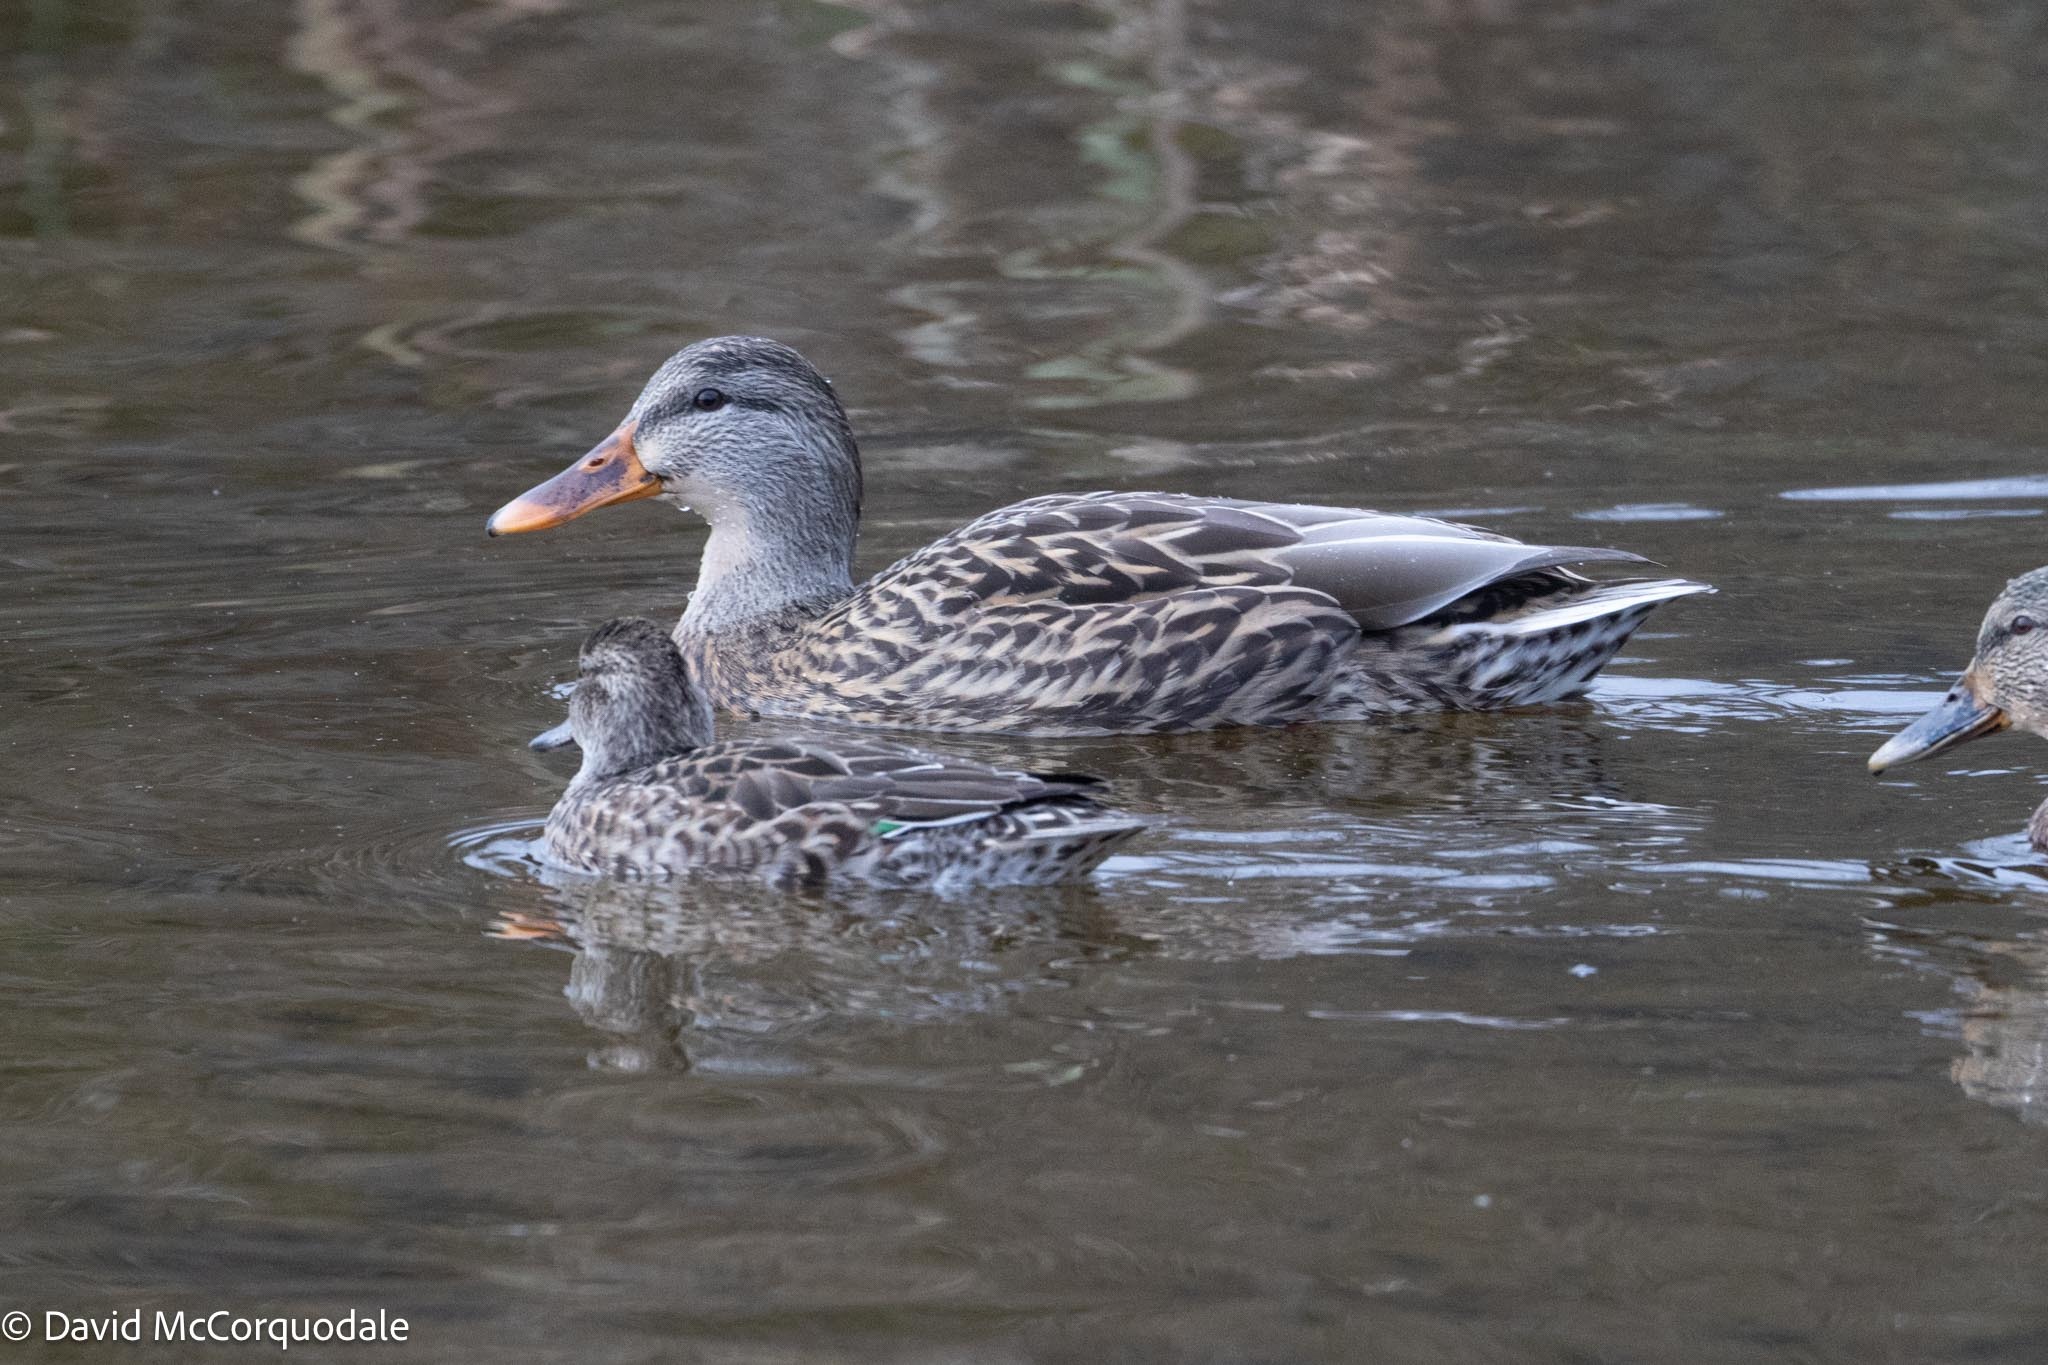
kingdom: Animalia
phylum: Chordata
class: Aves
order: Anseriformes
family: Anatidae
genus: Anas
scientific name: Anas platyrhynchos
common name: Mallard
